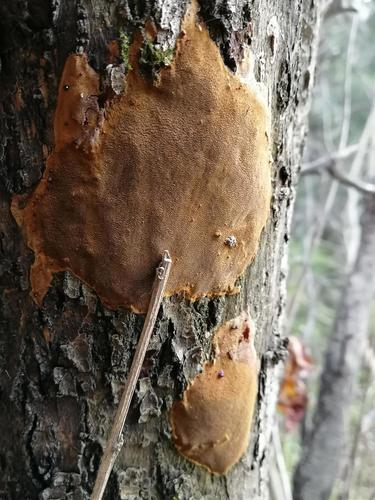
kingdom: Fungi
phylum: Basidiomycota
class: Agaricomycetes
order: Hymenochaetales
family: Hymenochaetaceae
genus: Fomitiporia
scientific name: Fomitiporia punctata
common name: Elbowpatch crust
